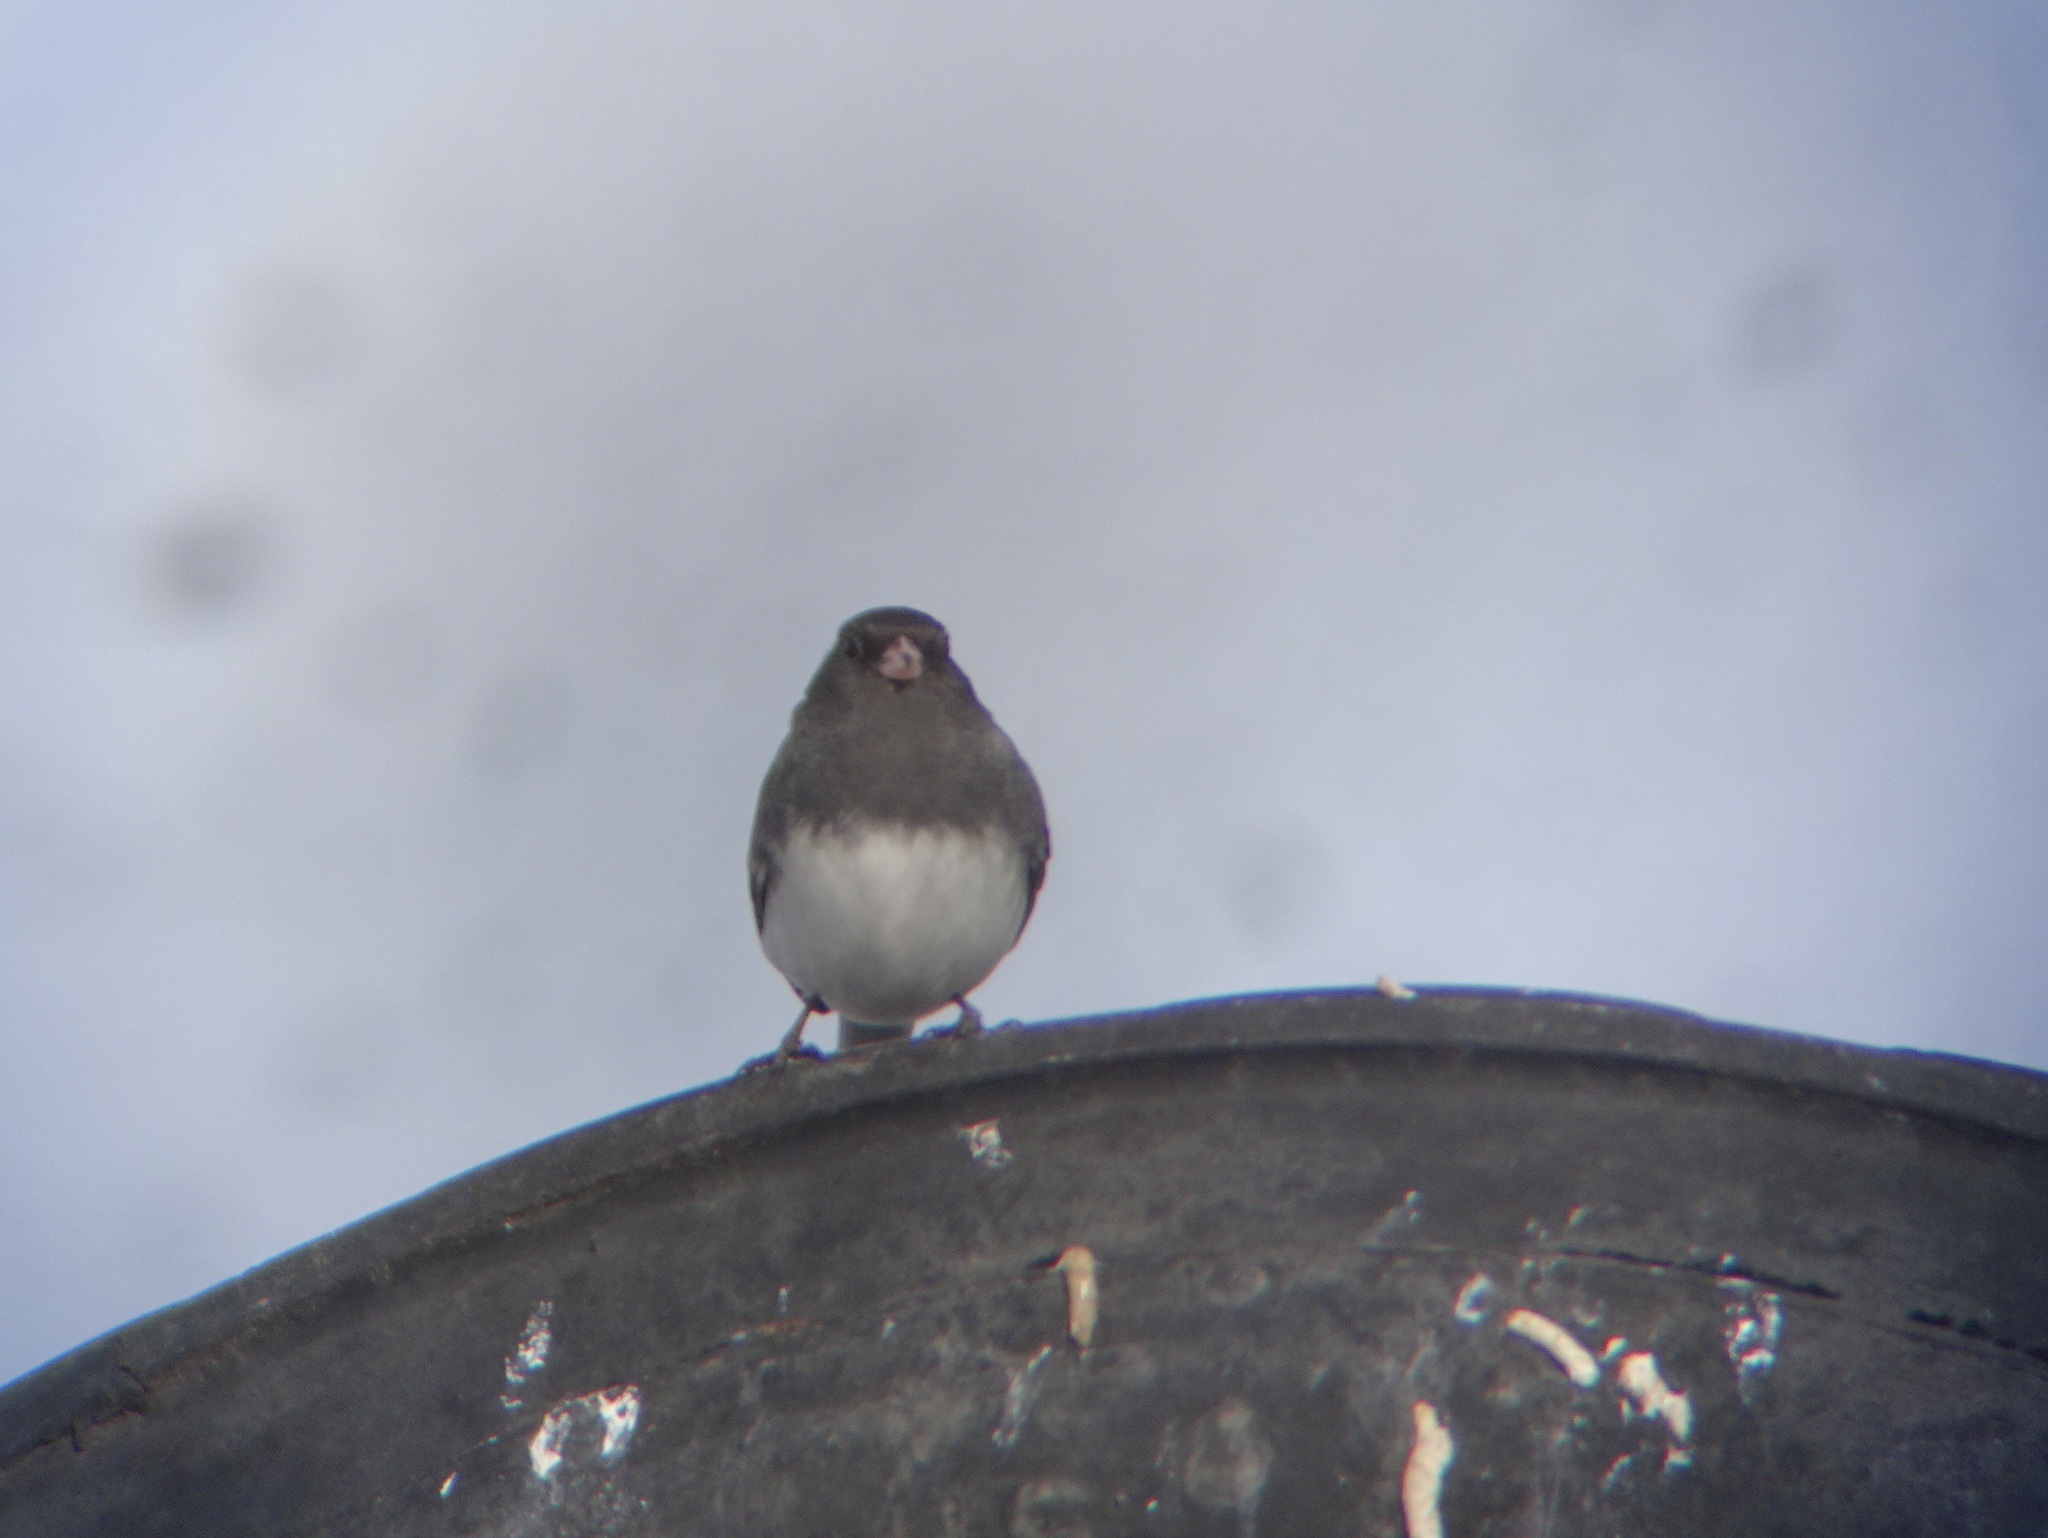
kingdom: Animalia
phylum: Chordata
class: Aves
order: Passeriformes
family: Passerellidae
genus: Junco
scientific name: Junco hyemalis
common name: Dark-eyed junco
